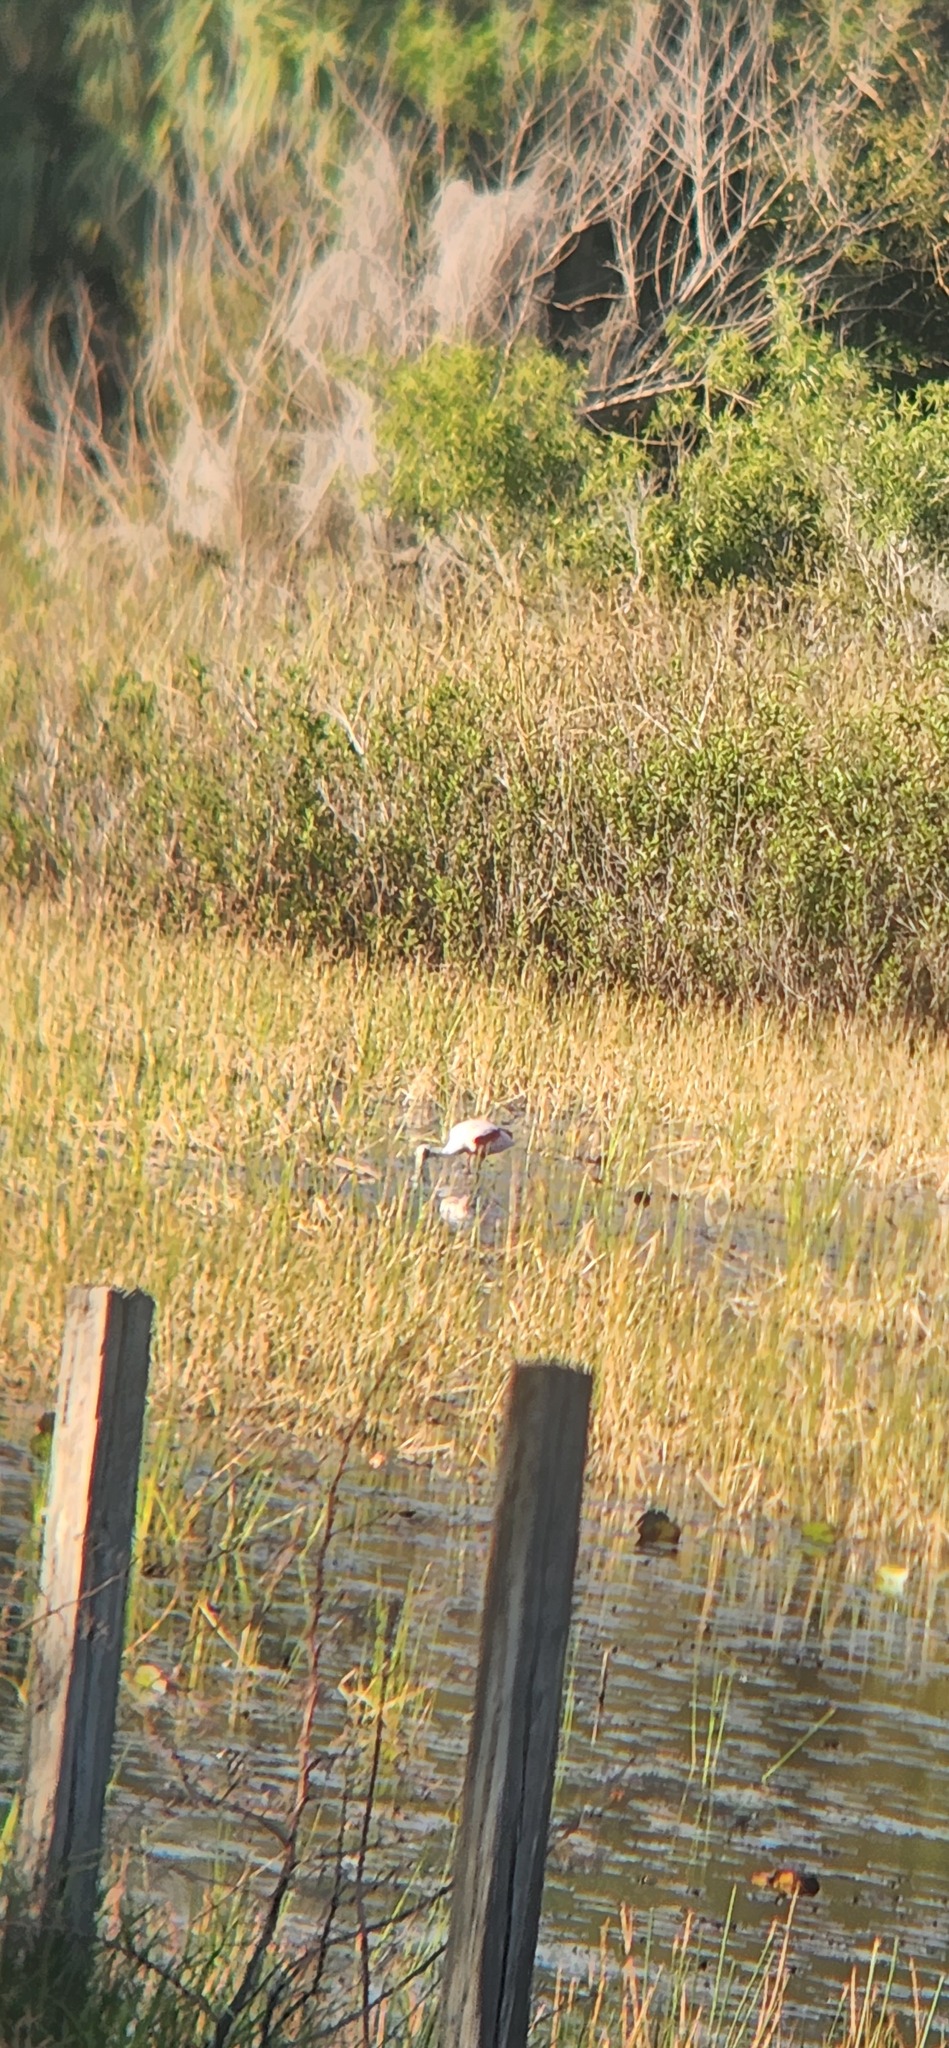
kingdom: Animalia
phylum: Chordata
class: Aves
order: Pelecaniformes
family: Threskiornithidae
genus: Platalea
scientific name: Platalea ajaja
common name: Roseate spoonbill
